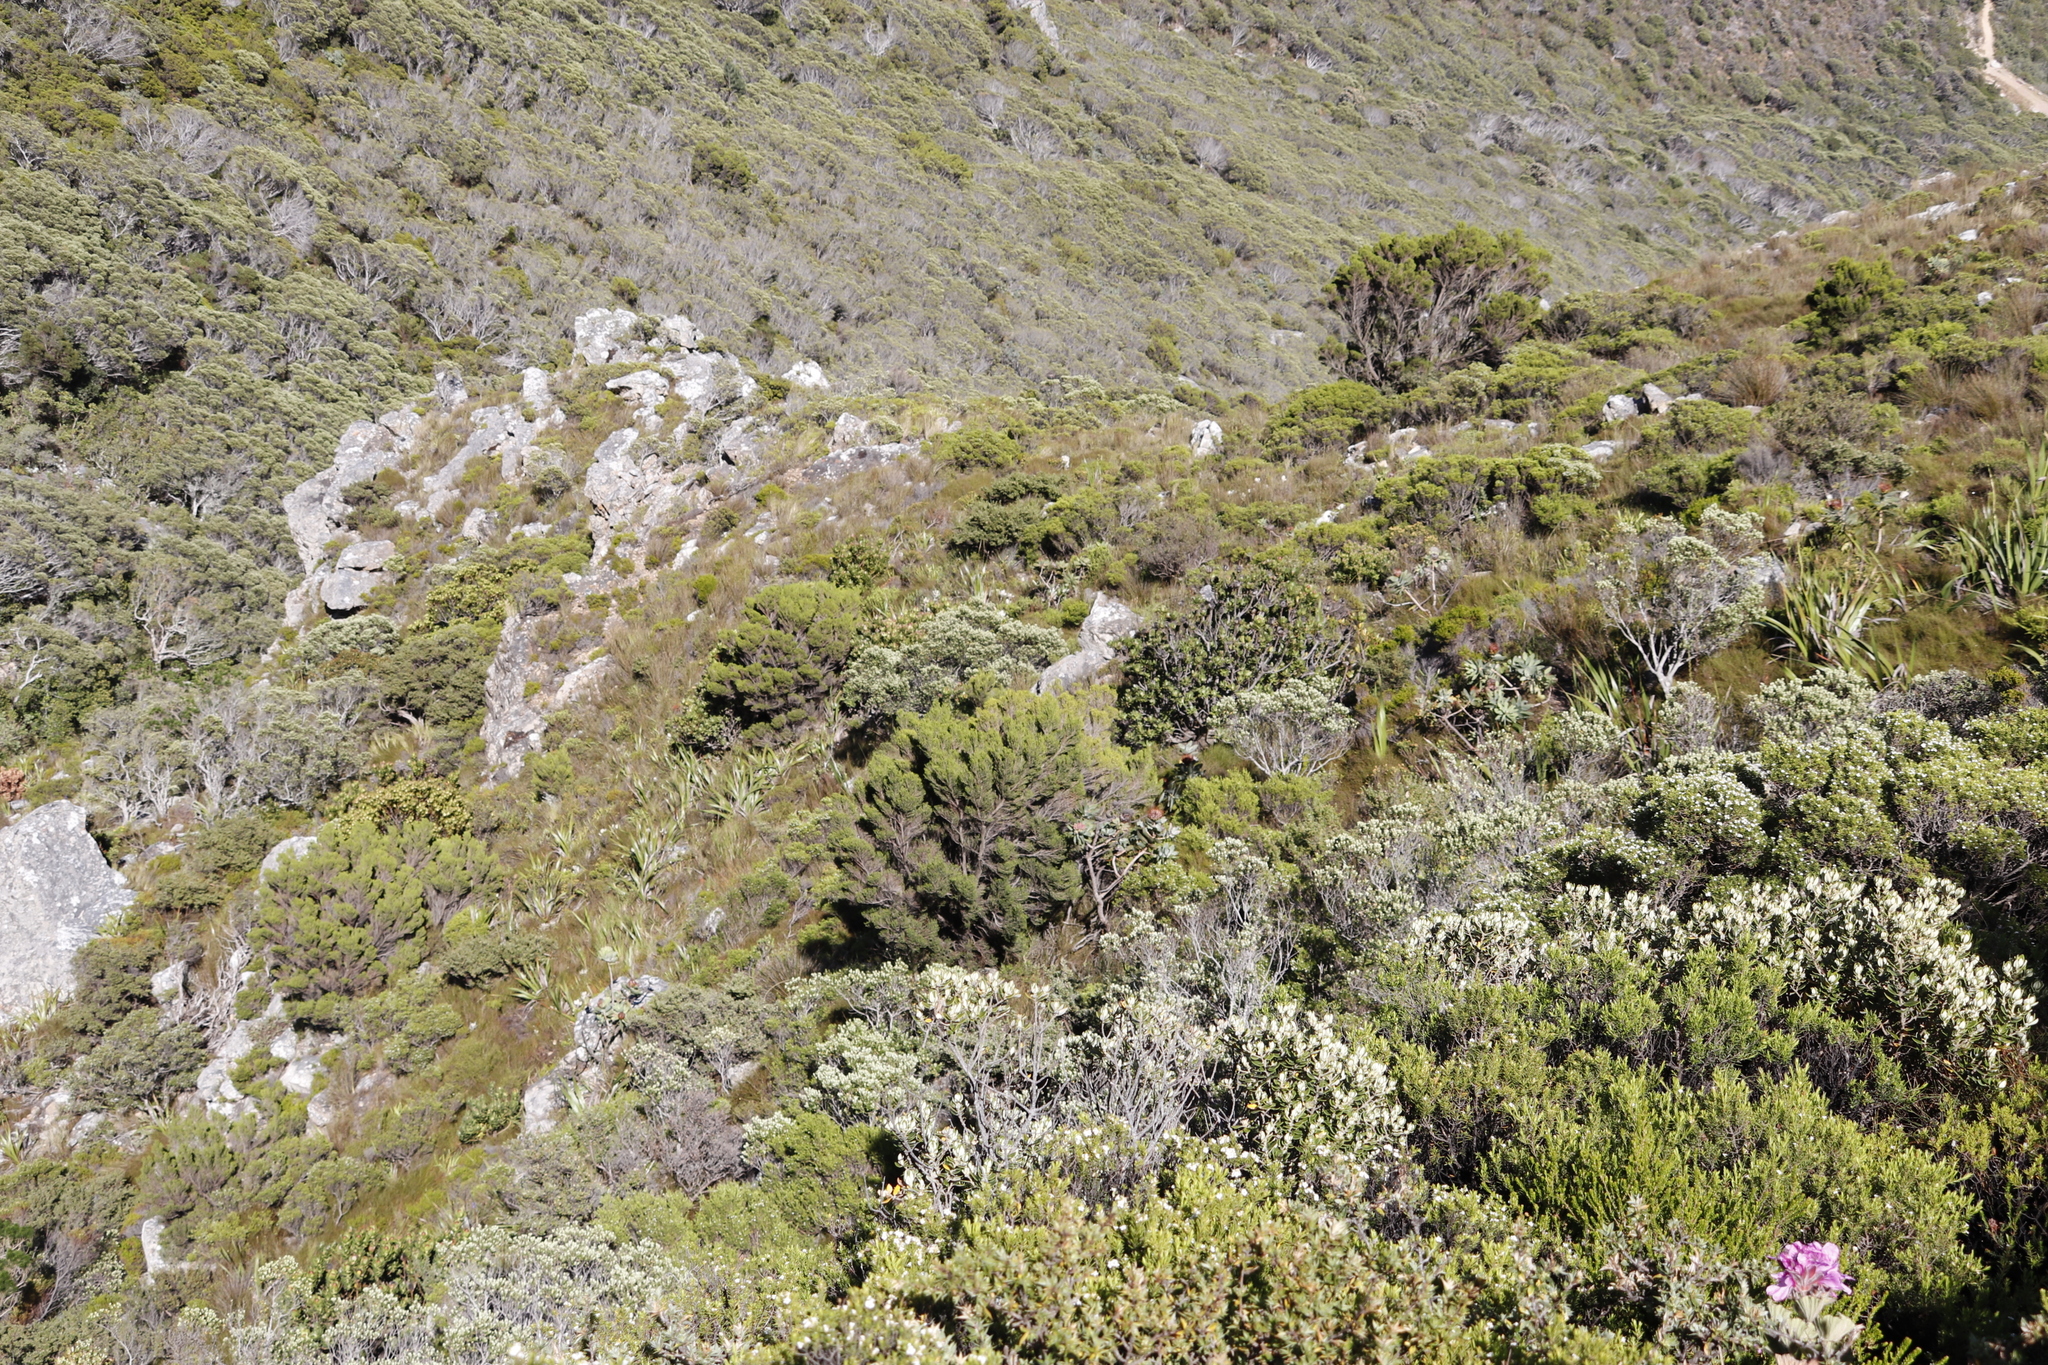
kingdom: Plantae
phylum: Tracheophyta
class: Magnoliopsida
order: Ericales
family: Ericaceae
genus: Erica
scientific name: Erica tristis
